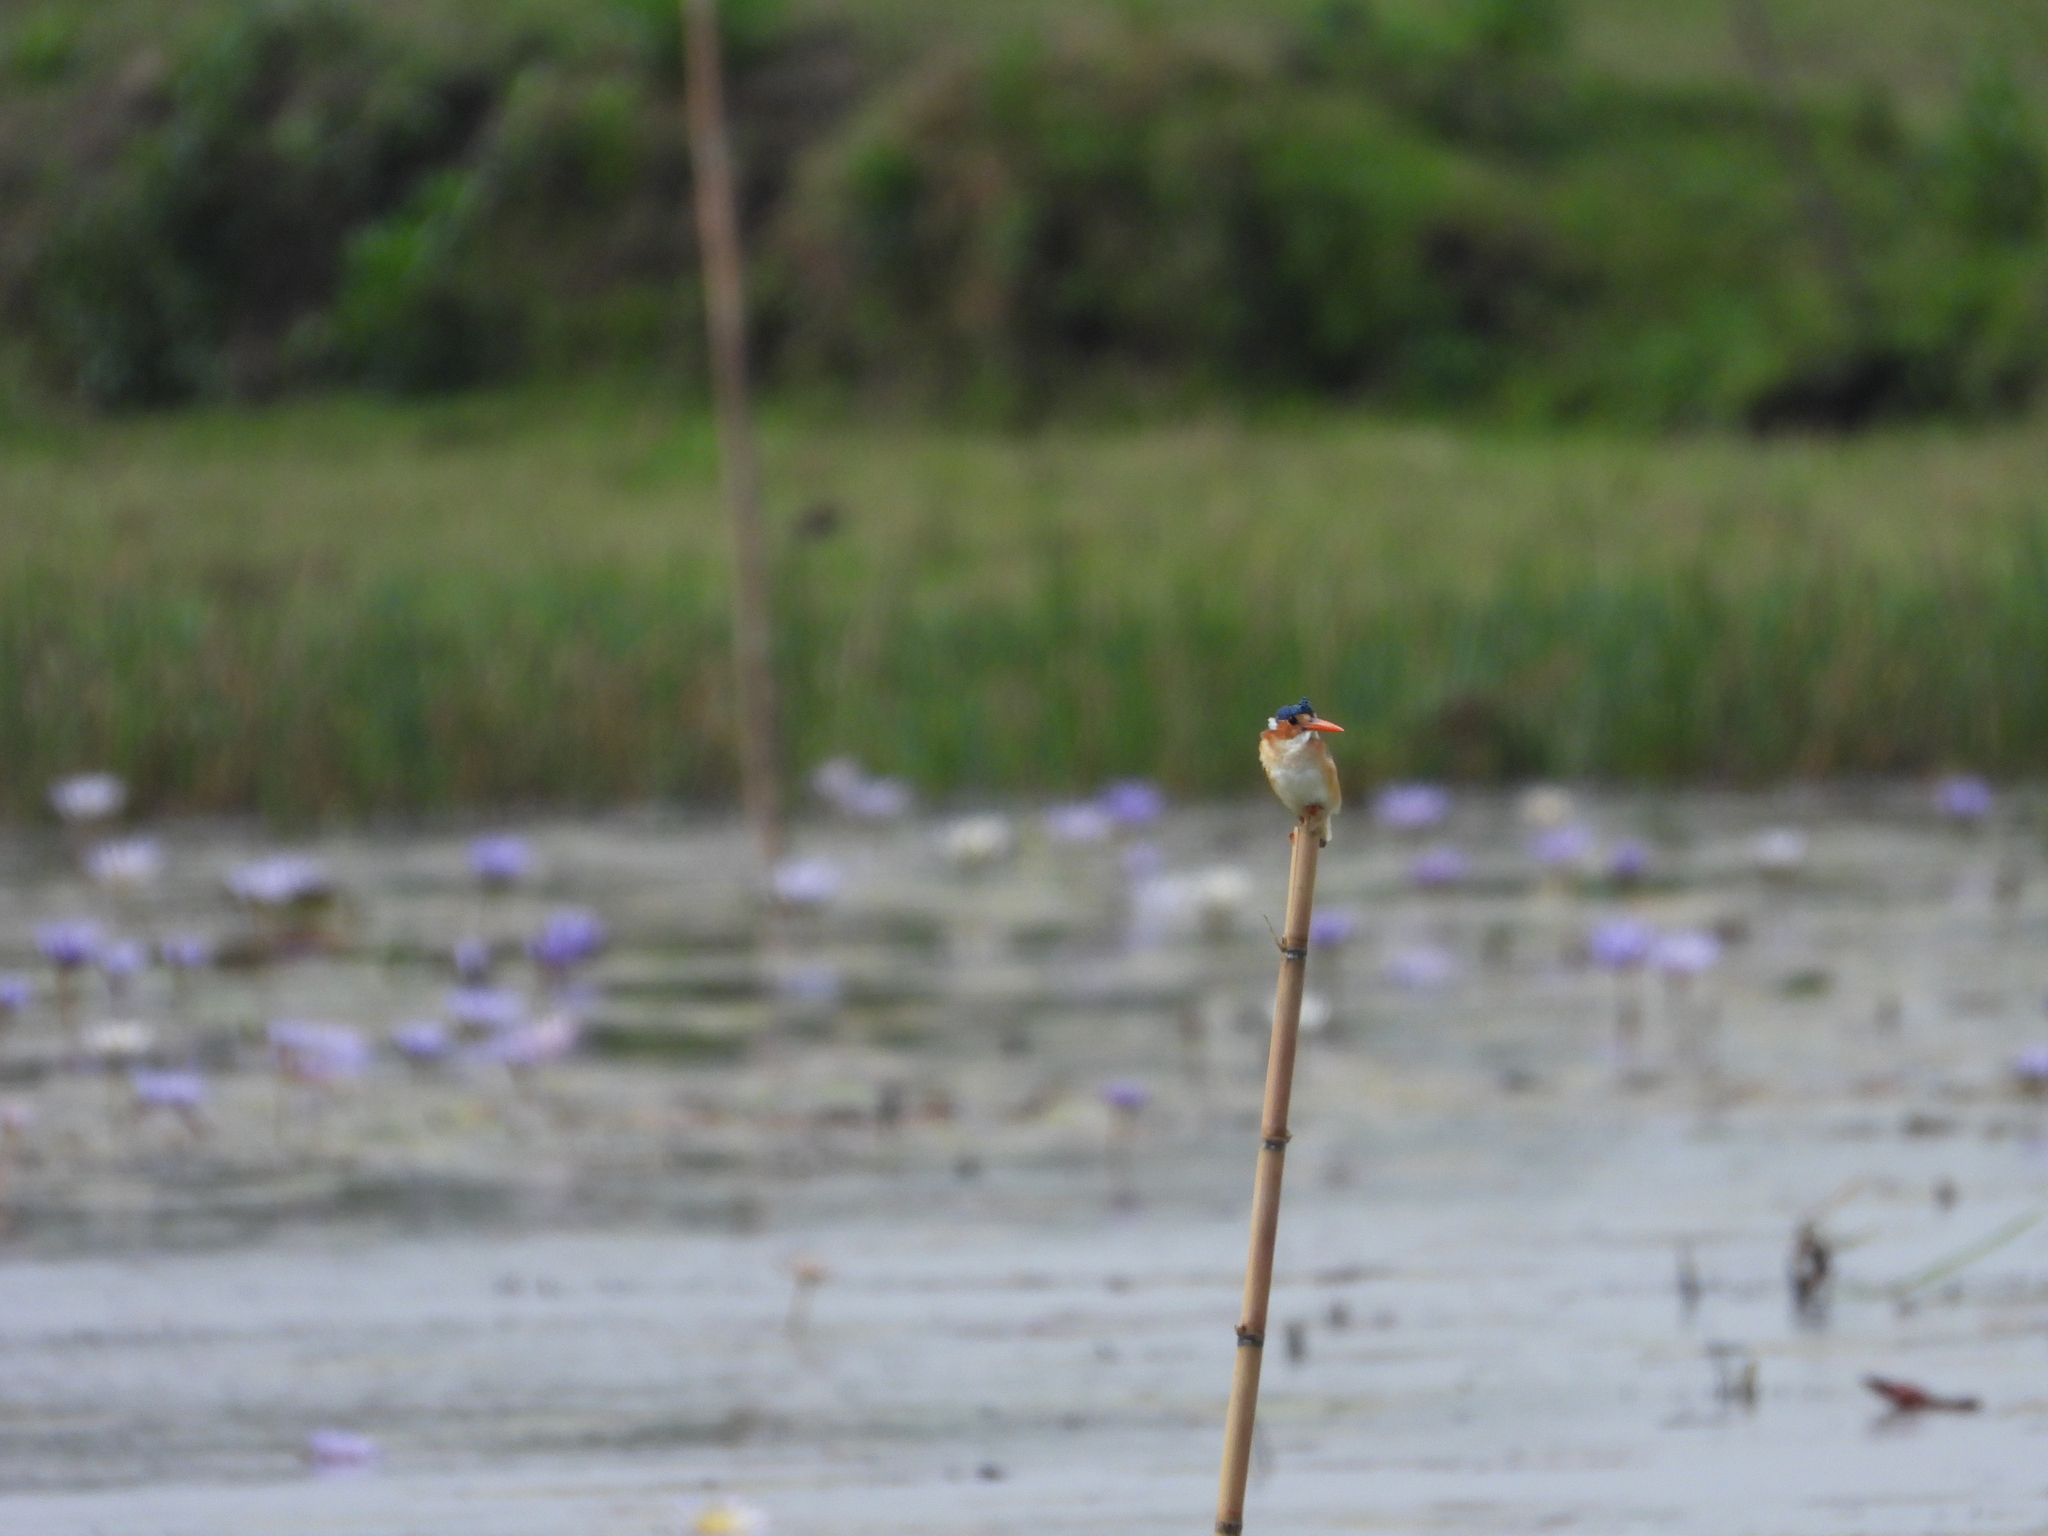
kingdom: Animalia
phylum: Chordata
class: Aves
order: Coraciiformes
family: Alcedinidae
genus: Corythornis
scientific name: Corythornis cristatus
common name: Malachite kingfisher
